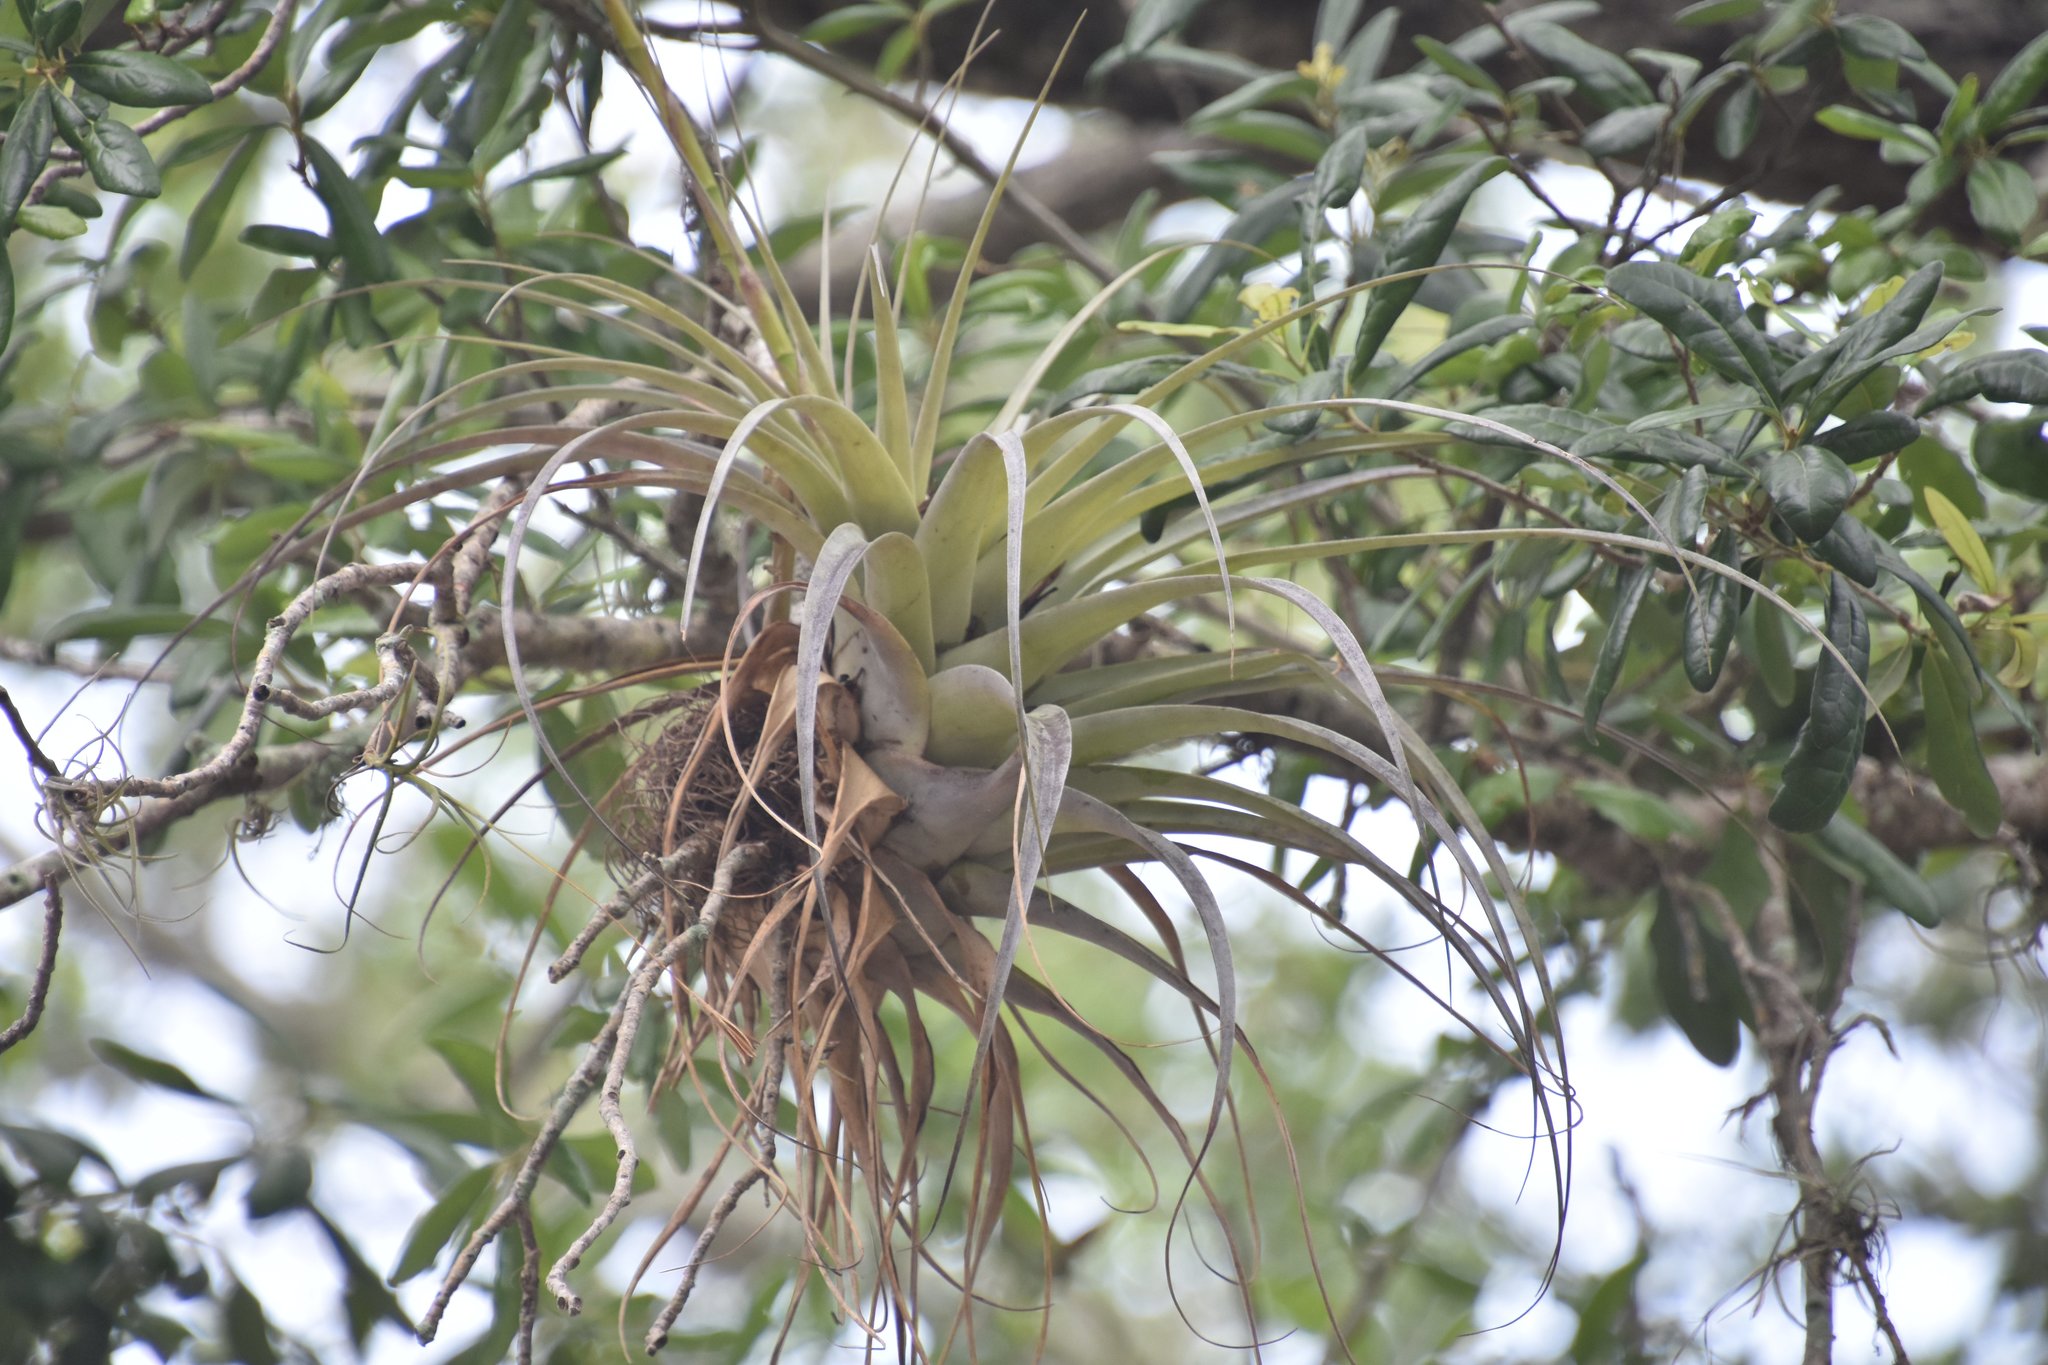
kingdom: Plantae
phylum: Tracheophyta
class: Liliopsida
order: Poales
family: Bromeliaceae
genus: Tillandsia
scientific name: Tillandsia utriculata
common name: Wild pine
